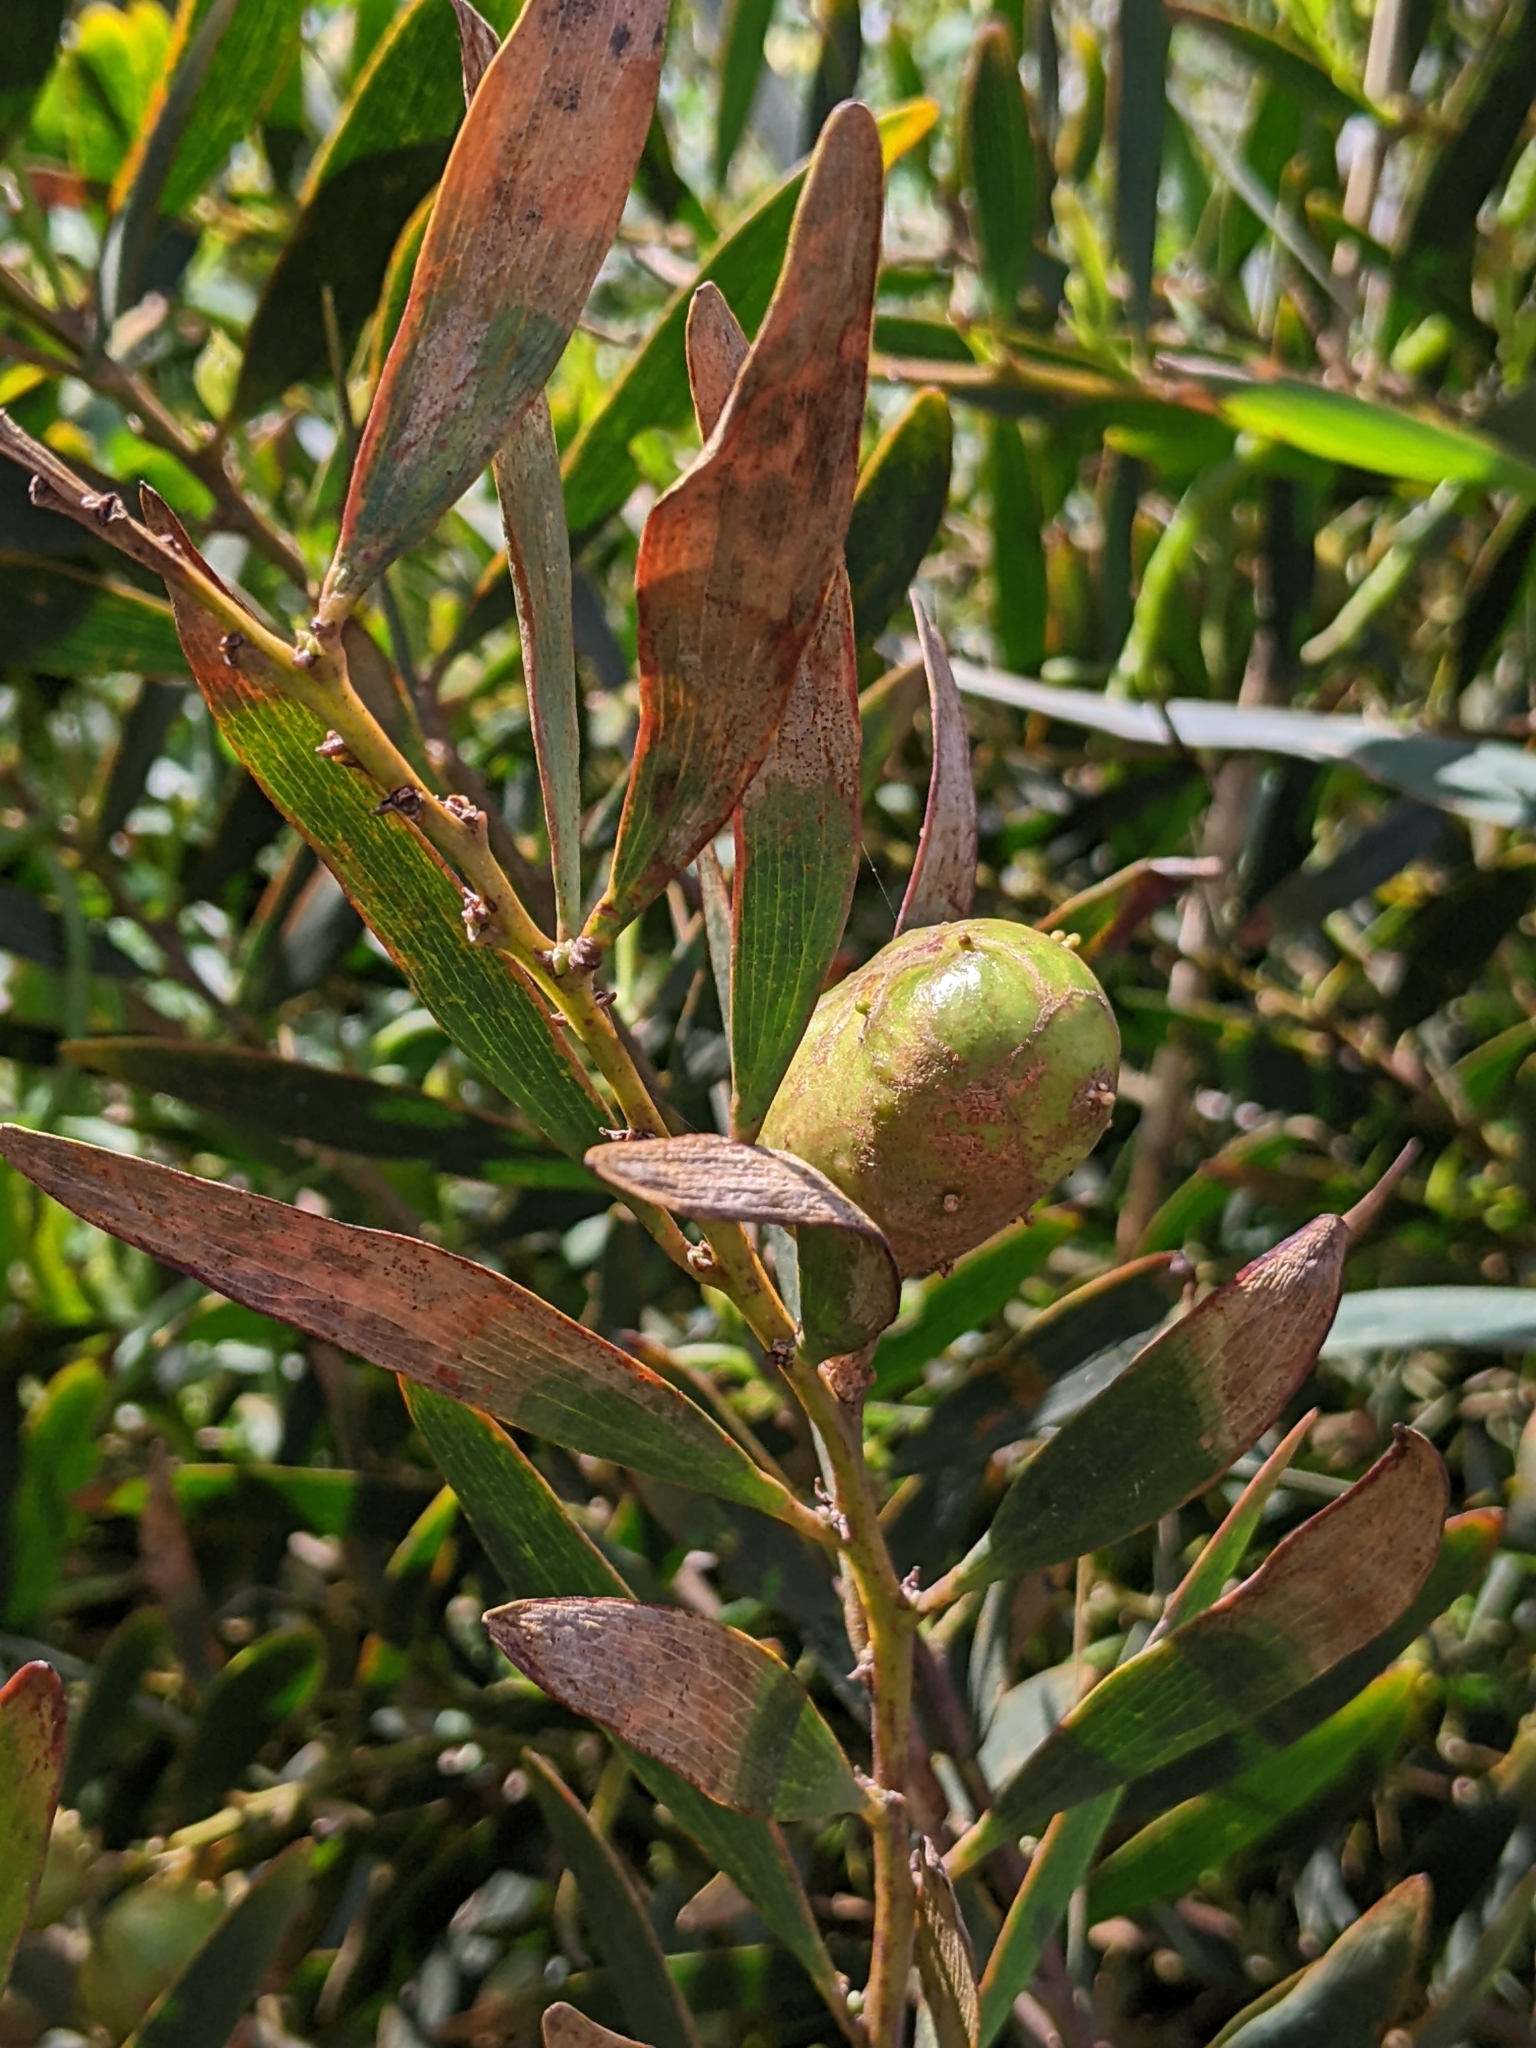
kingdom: Animalia
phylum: Arthropoda
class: Insecta
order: Hymenoptera
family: Pteromalidae
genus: Trichilogaster
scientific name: Trichilogaster acaciaelongifoliae
